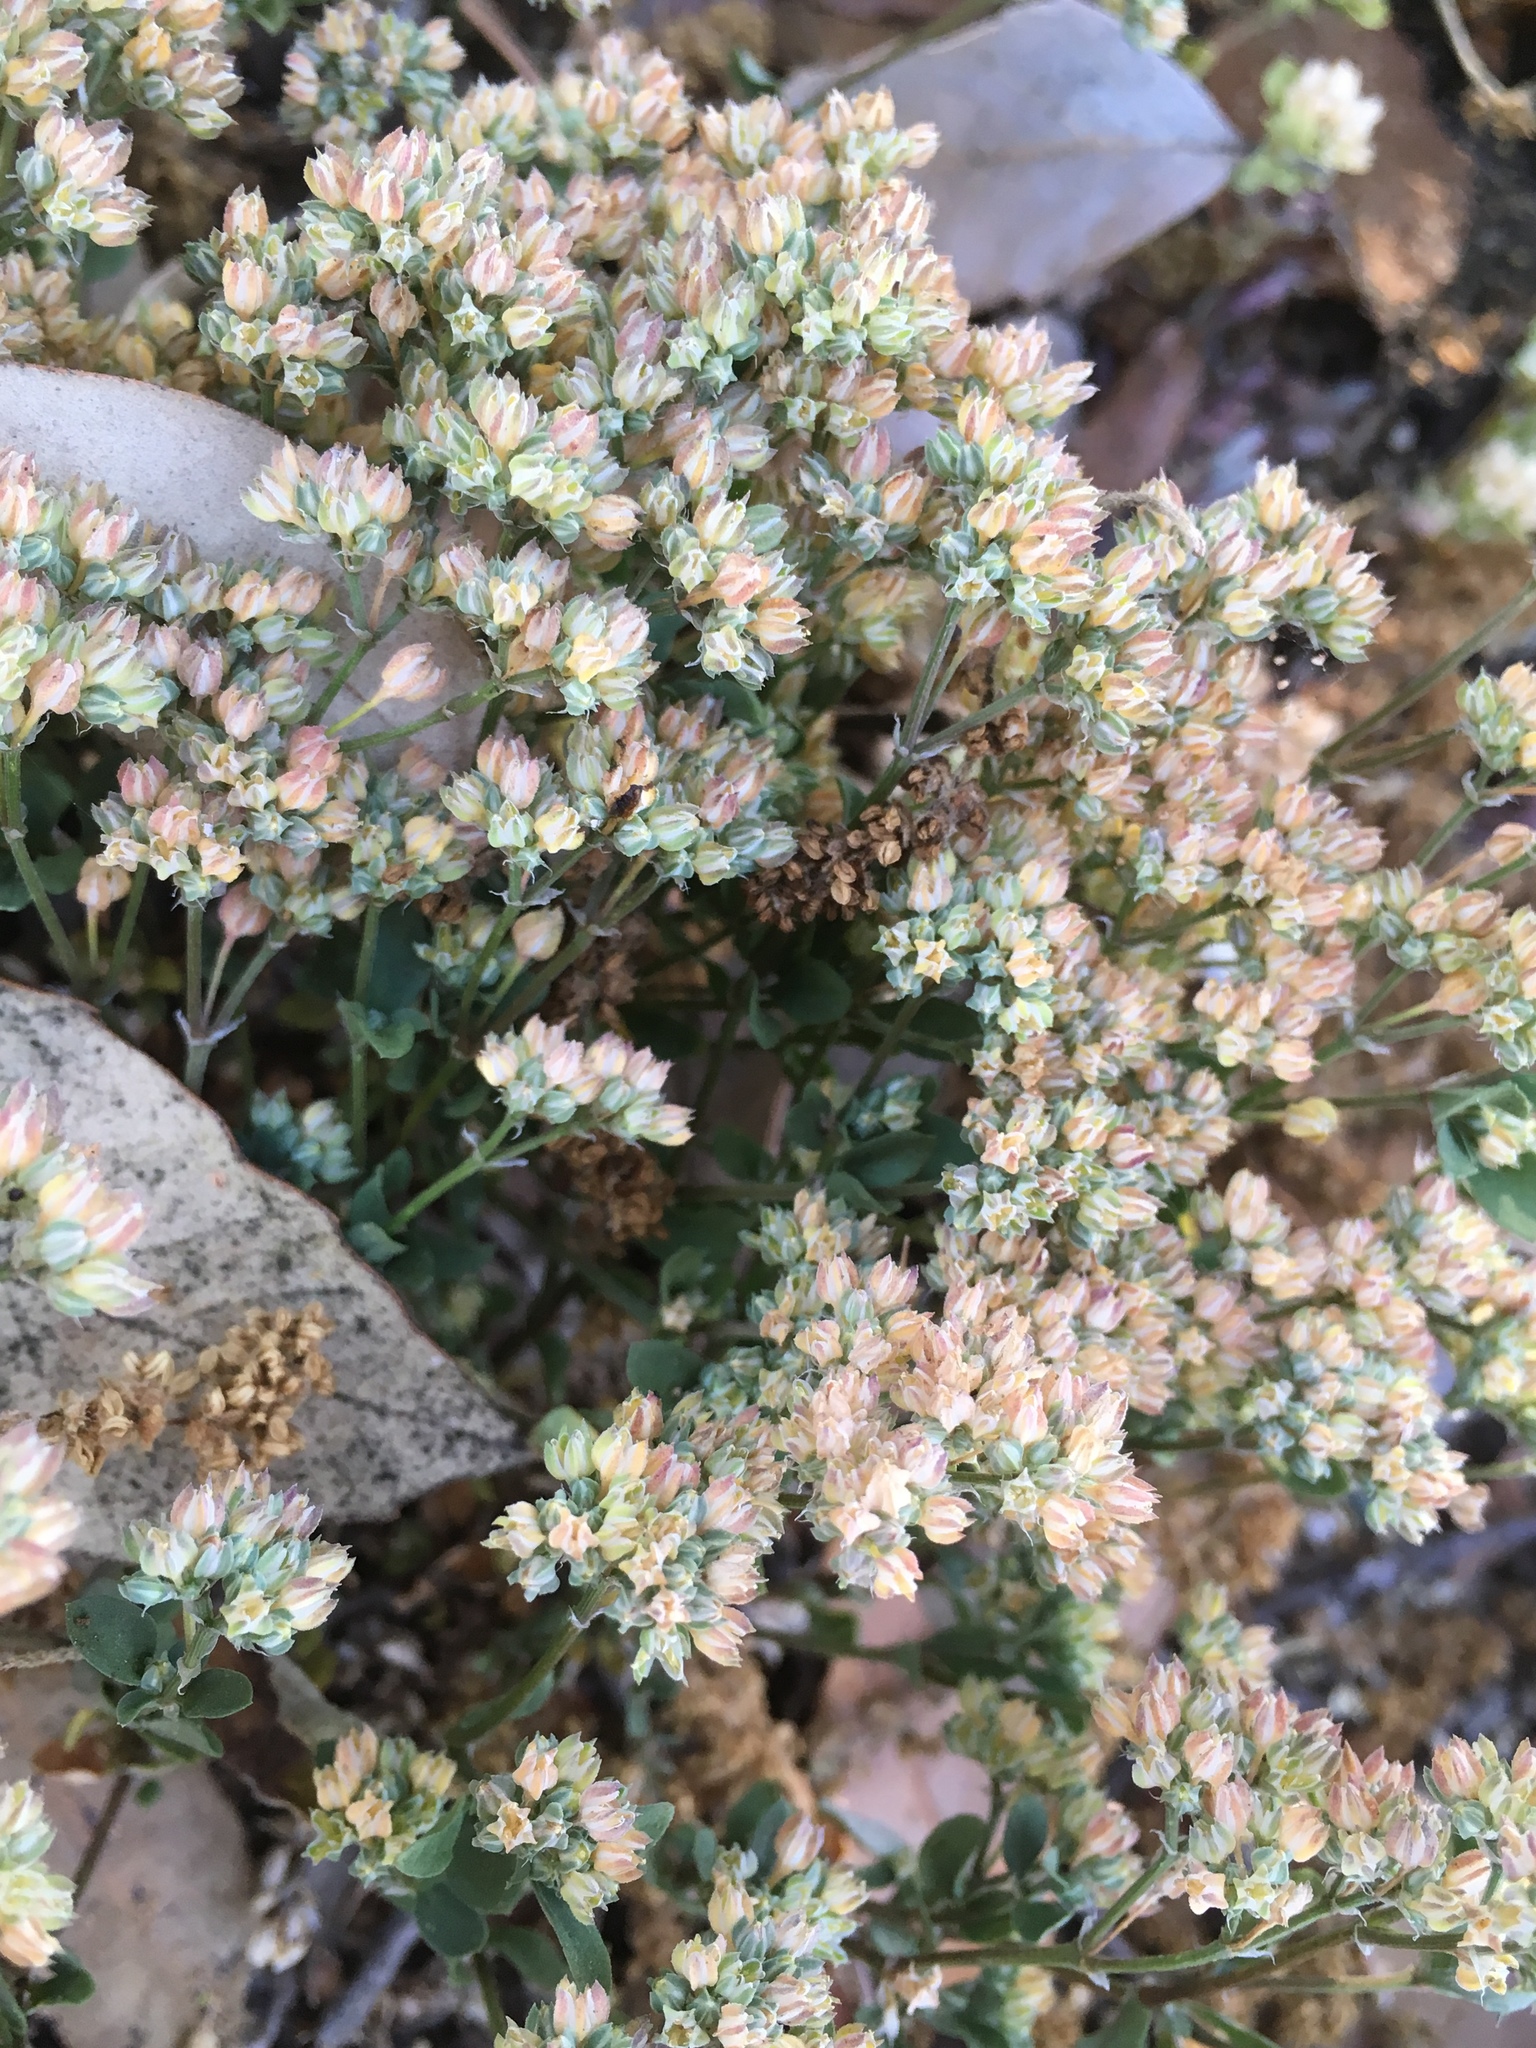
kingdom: Plantae
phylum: Tracheophyta
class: Magnoliopsida
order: Caryophyllales
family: Caryophyllaceae
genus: Polycarpon
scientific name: Polycarpon tetraphyllum
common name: Four-leaved all-seed
